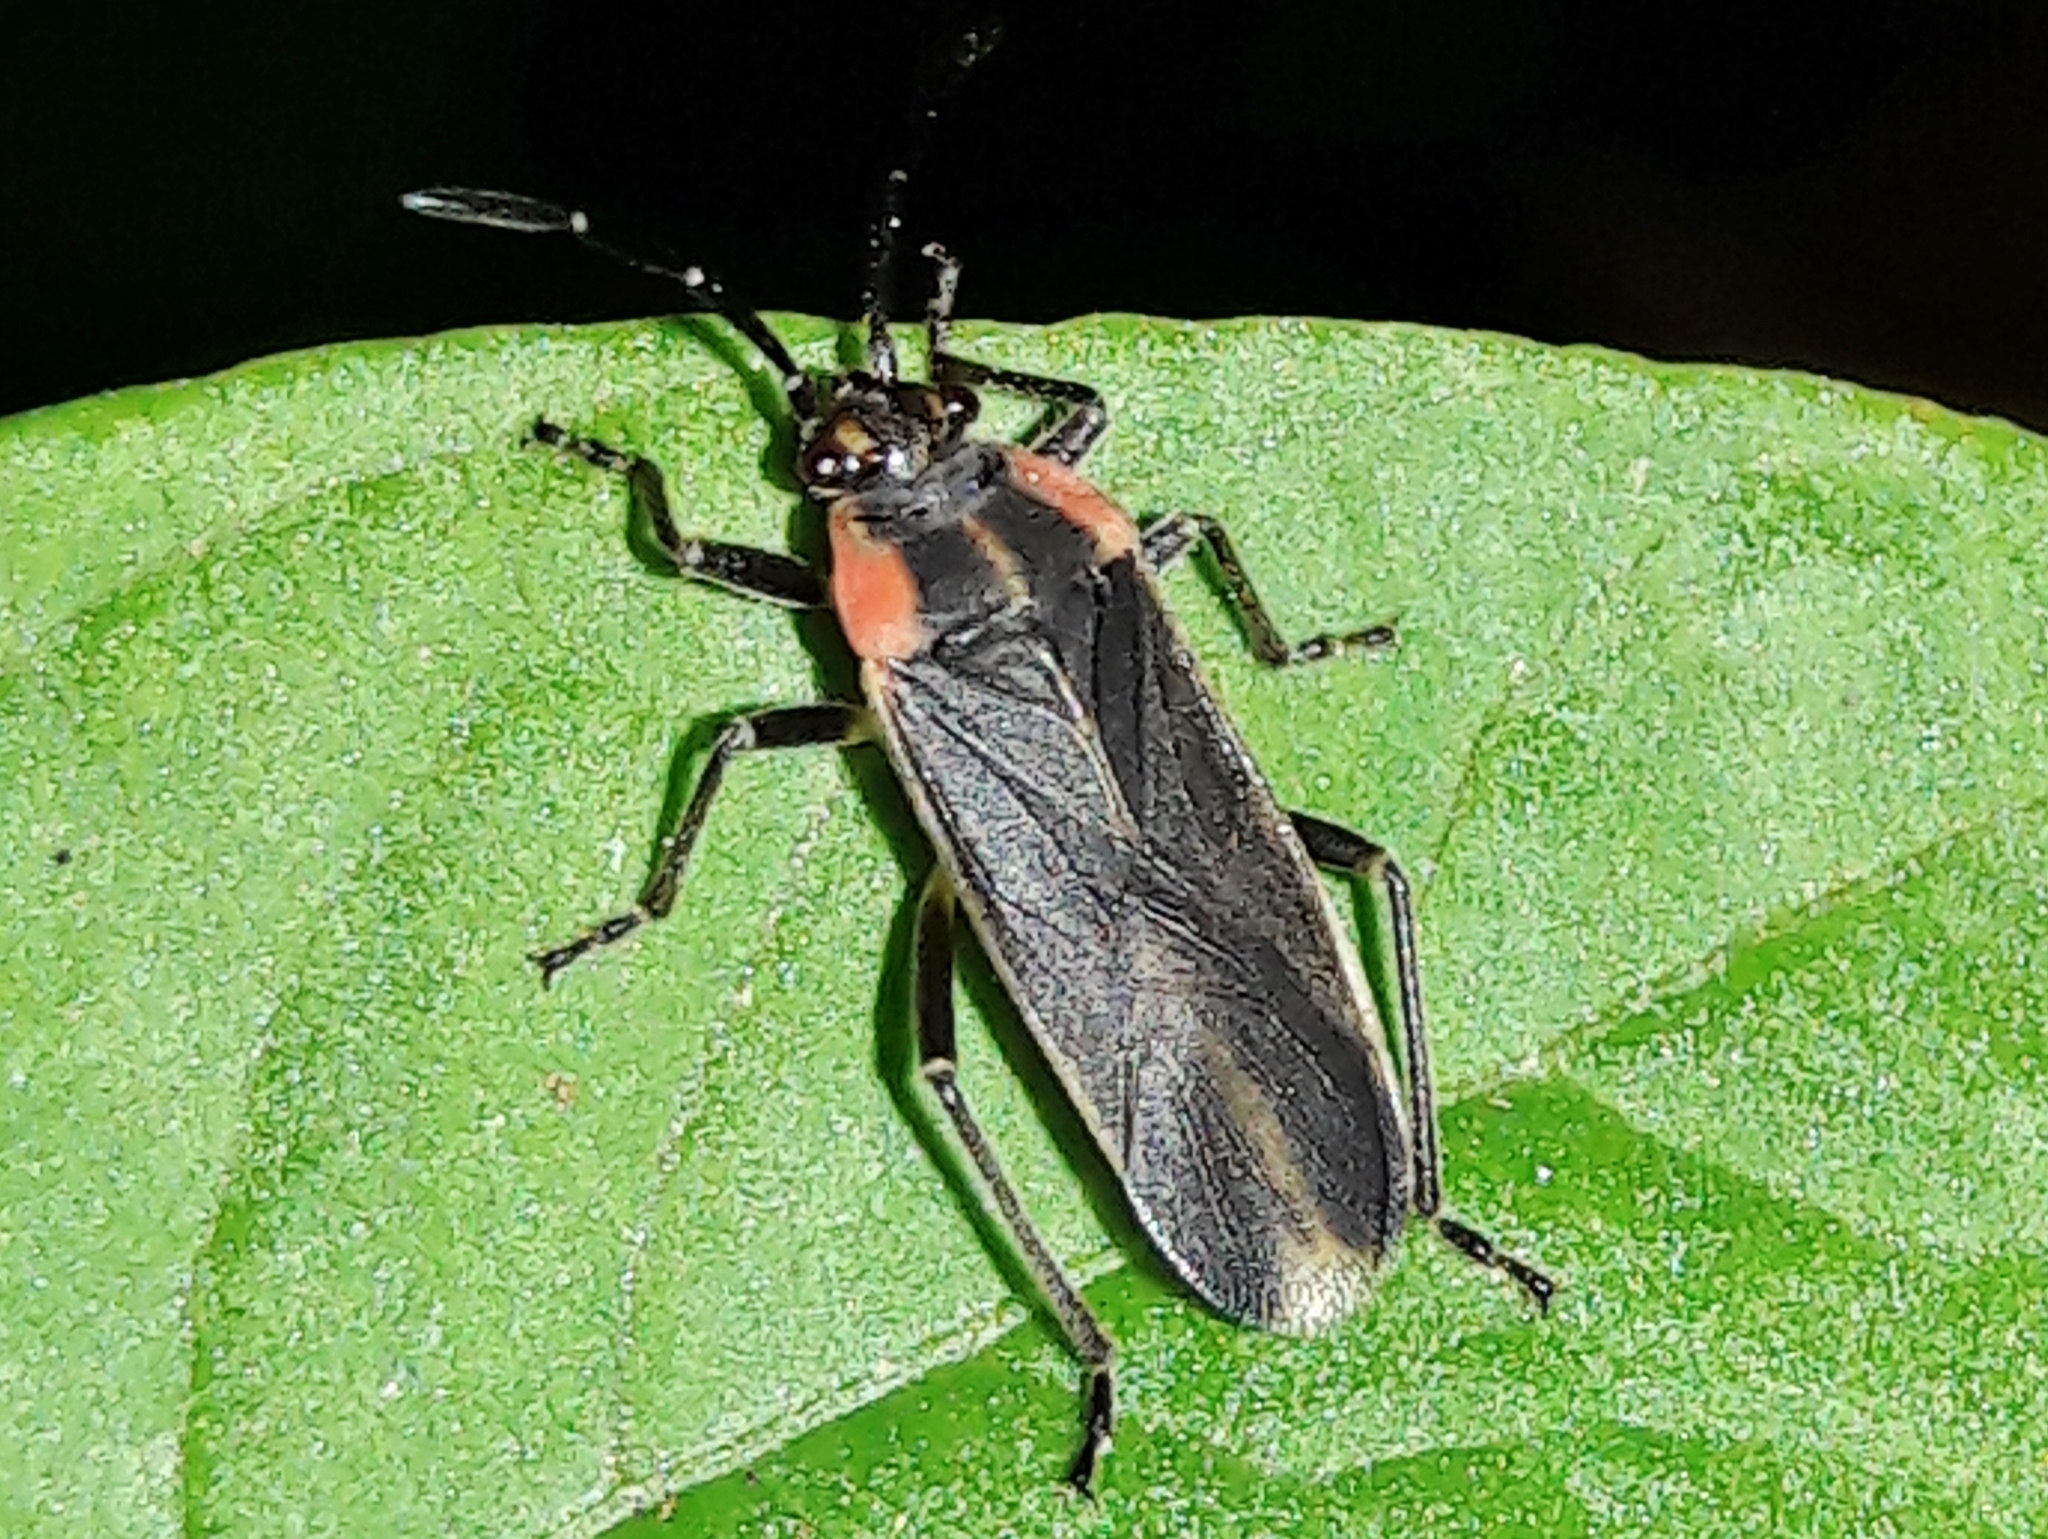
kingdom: Animalia
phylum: Arthropoda
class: Insecta
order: Hemiptera
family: Lygaeidae
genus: Acroleucus
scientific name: Acroleucus coxalis
